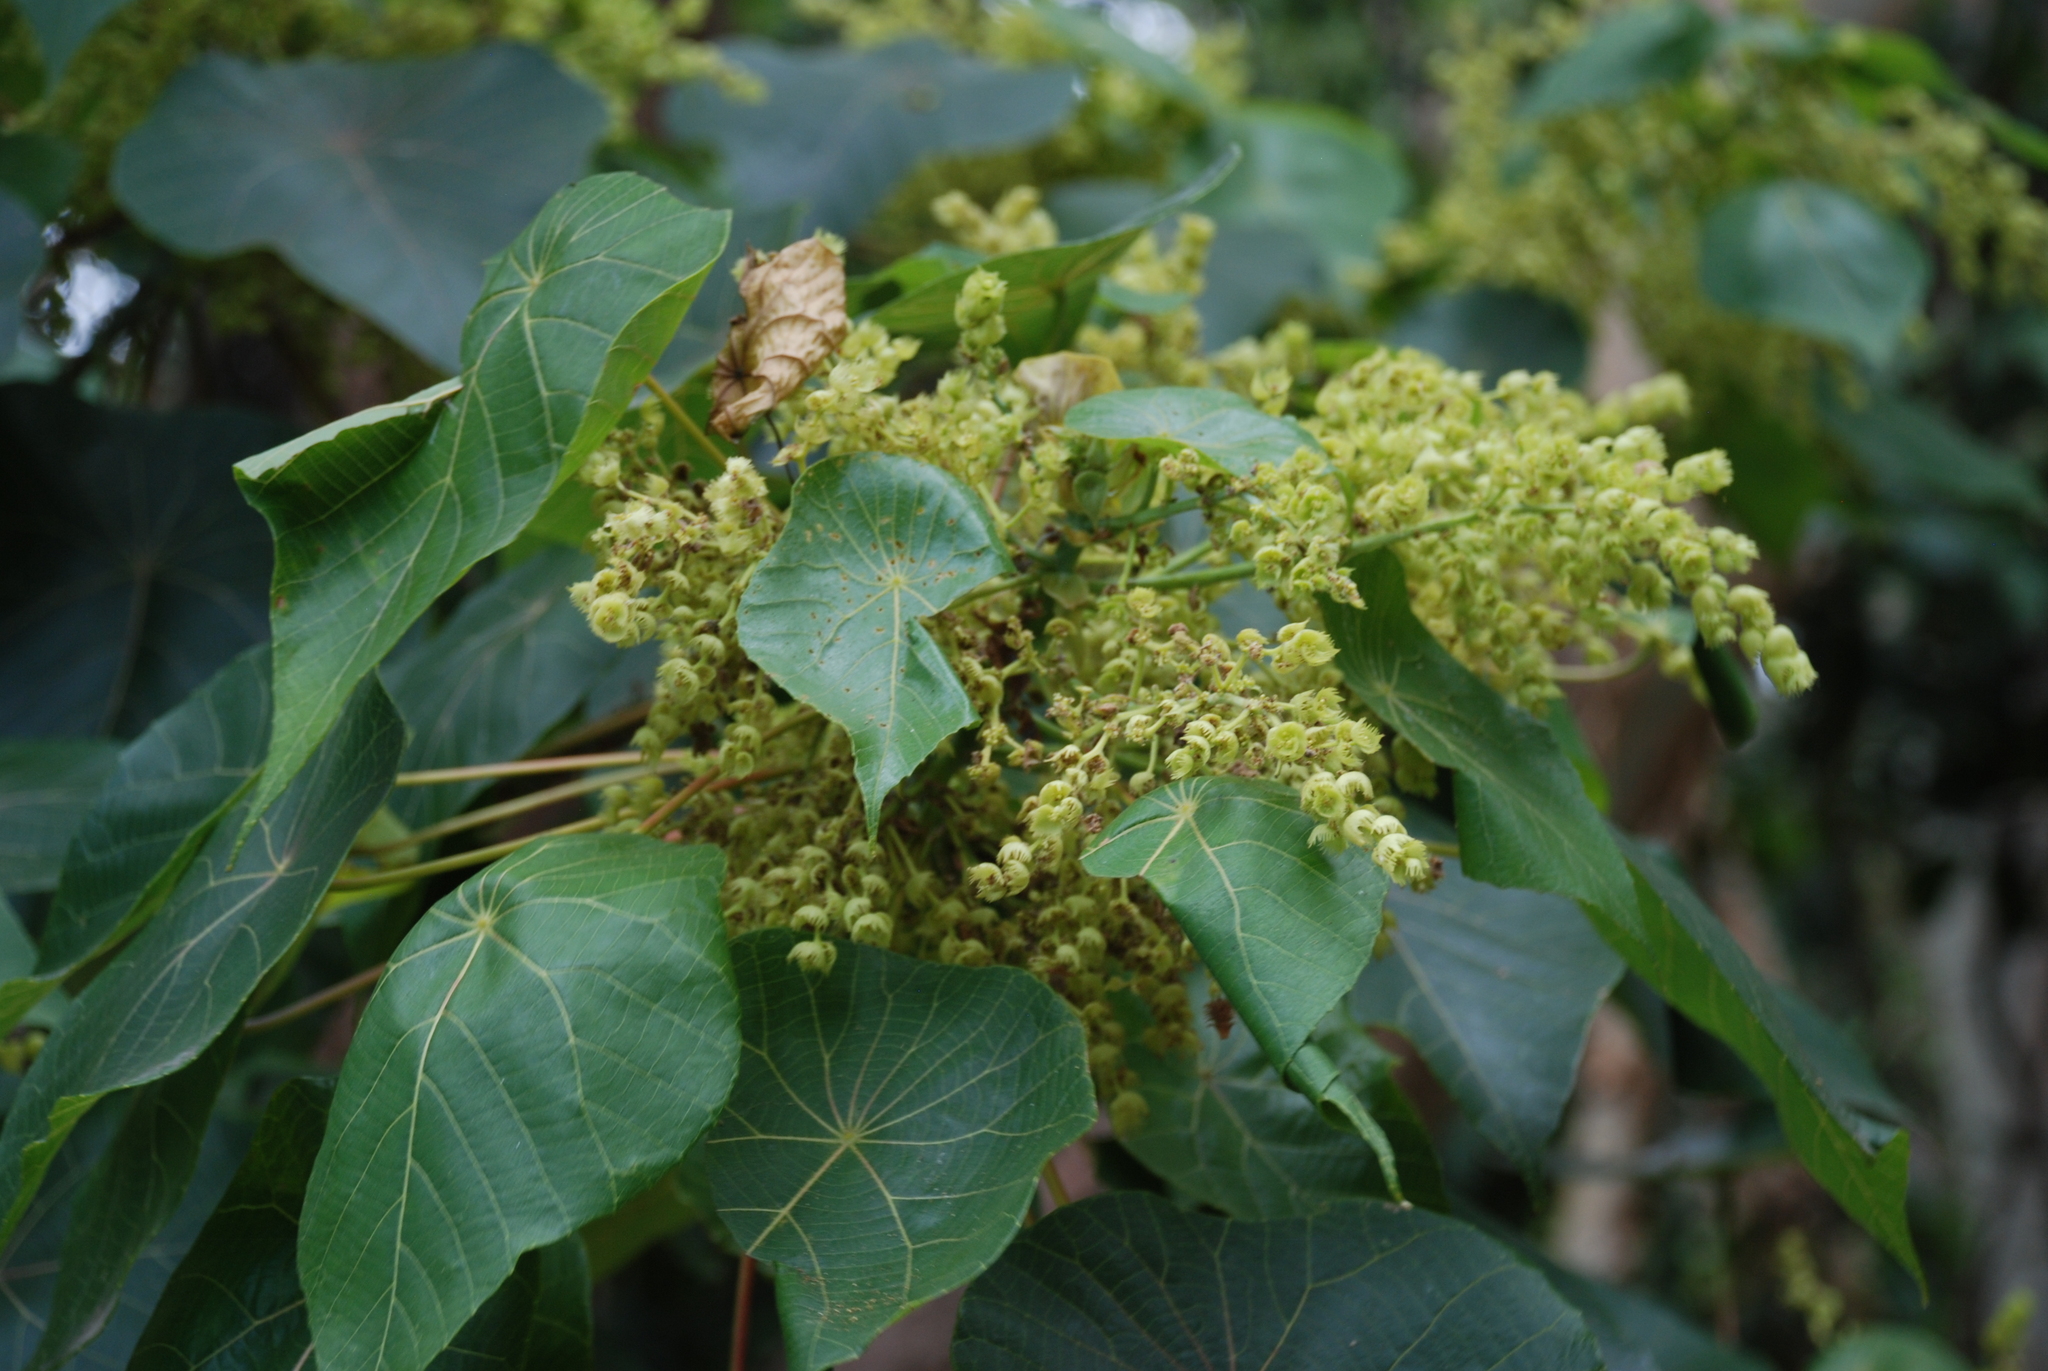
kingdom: Plantae
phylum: Tracheophyta
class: Magnoliopsida
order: Malpighiales
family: Euphorbiaceae
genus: Macaranga
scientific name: Macaranga tanarius
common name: Parasol leaf tree
